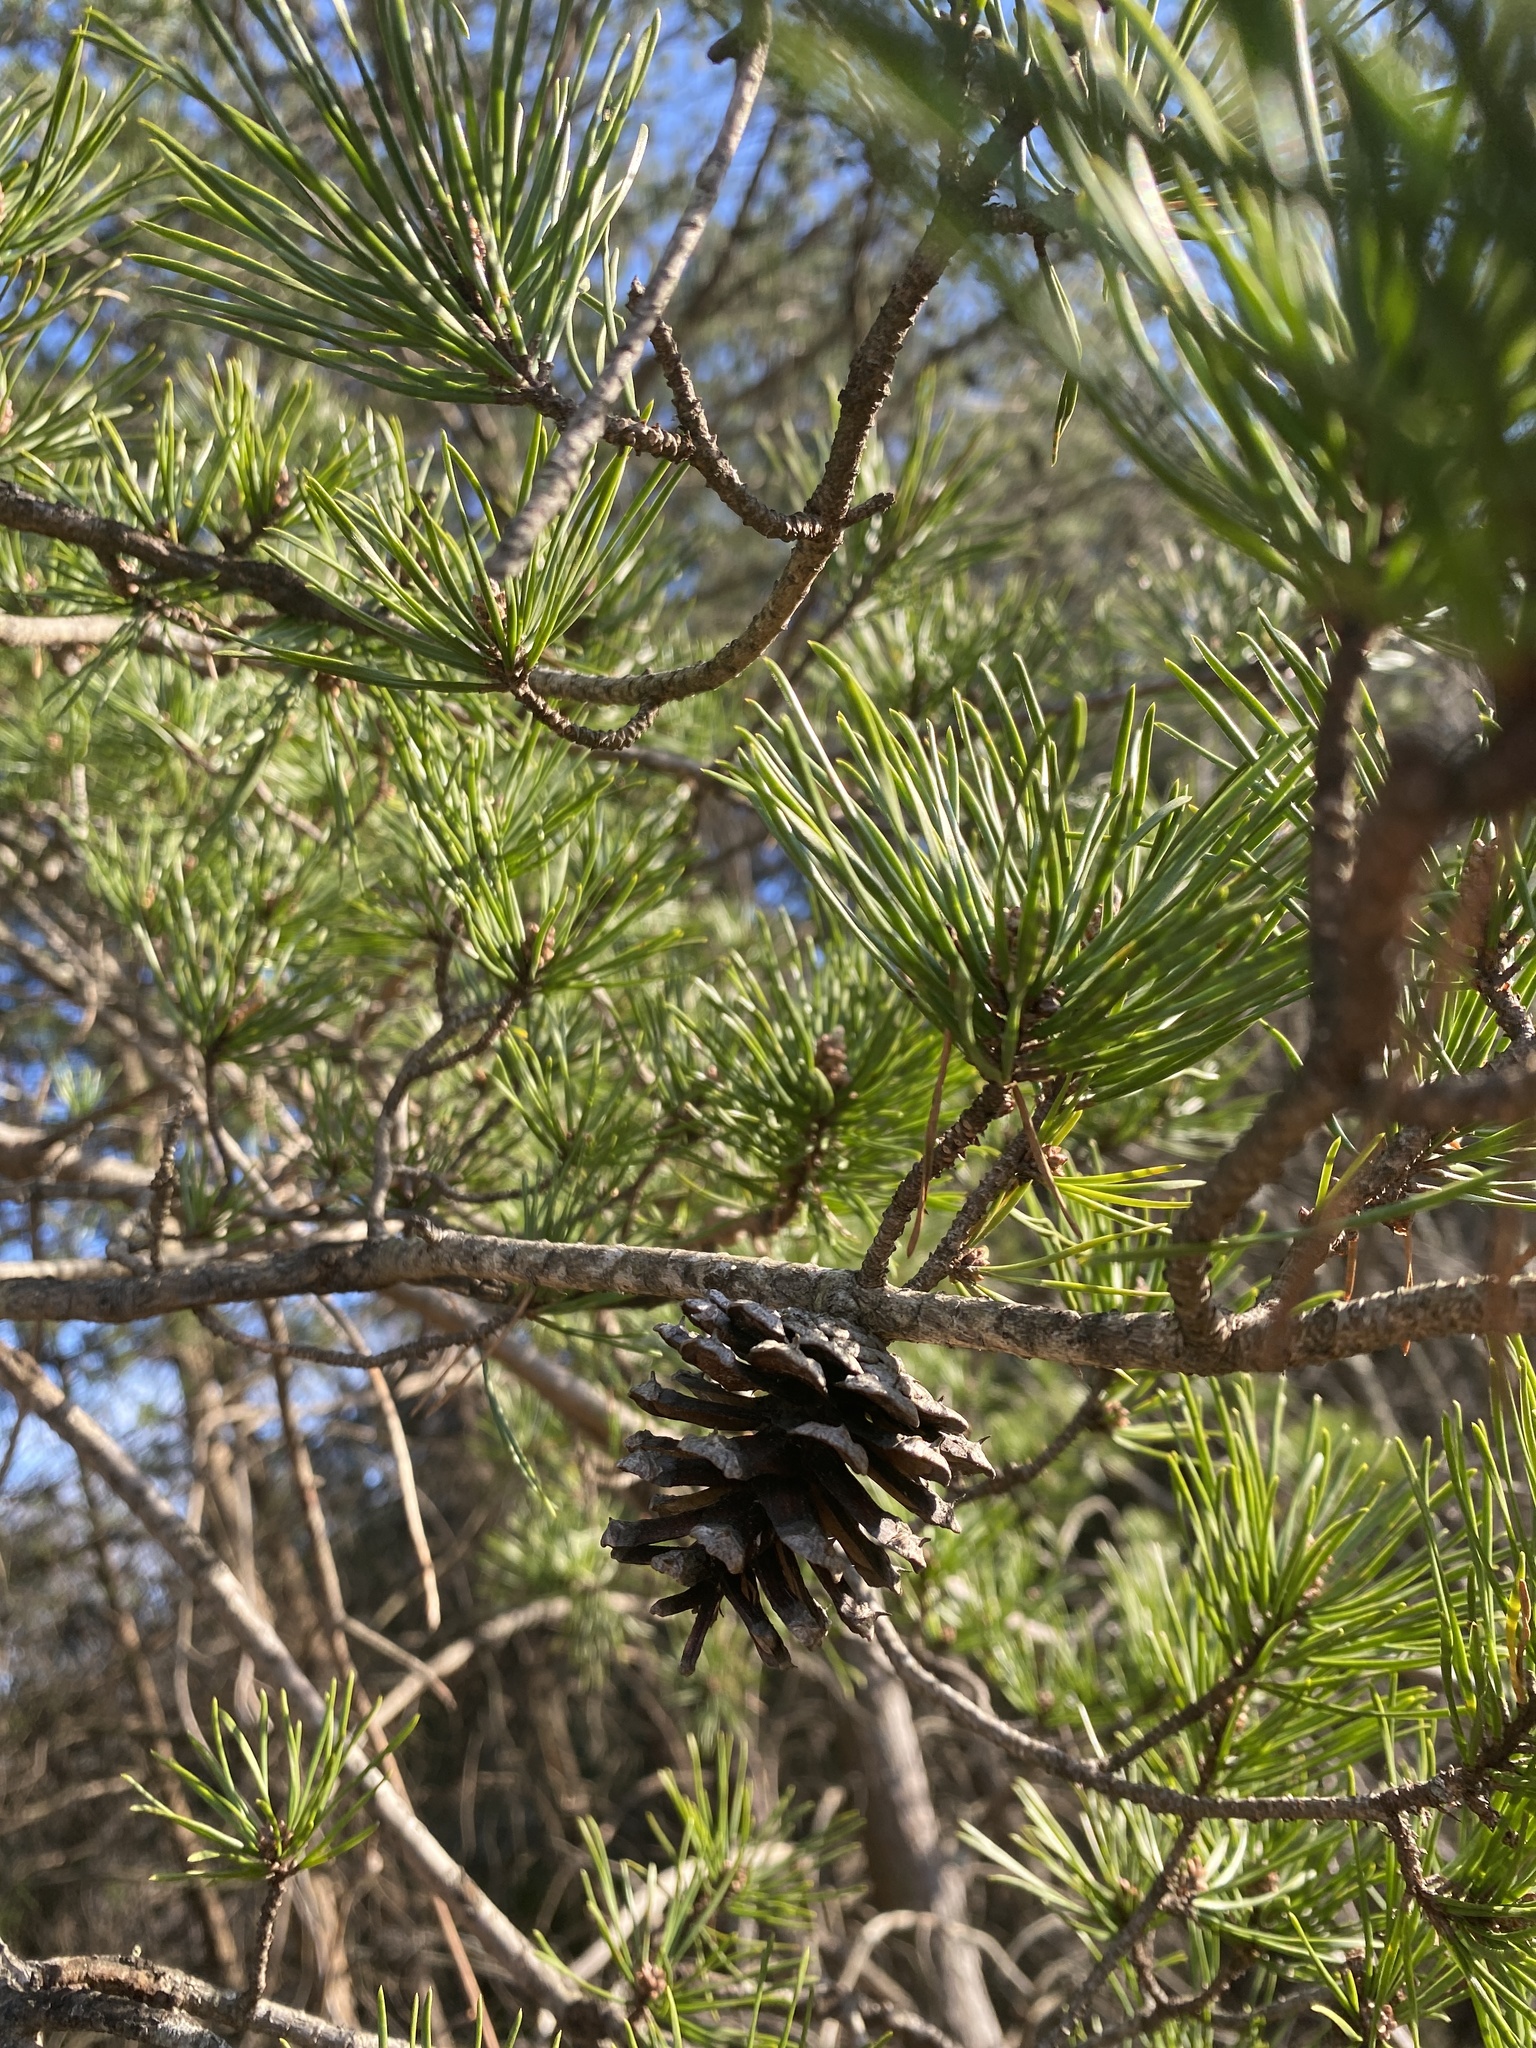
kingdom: Plantae
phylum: Tracheophyta
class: Pinopsida
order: Pinales
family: Pinaceae
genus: Pinus
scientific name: Pinus virginiana
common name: Scrub pine
